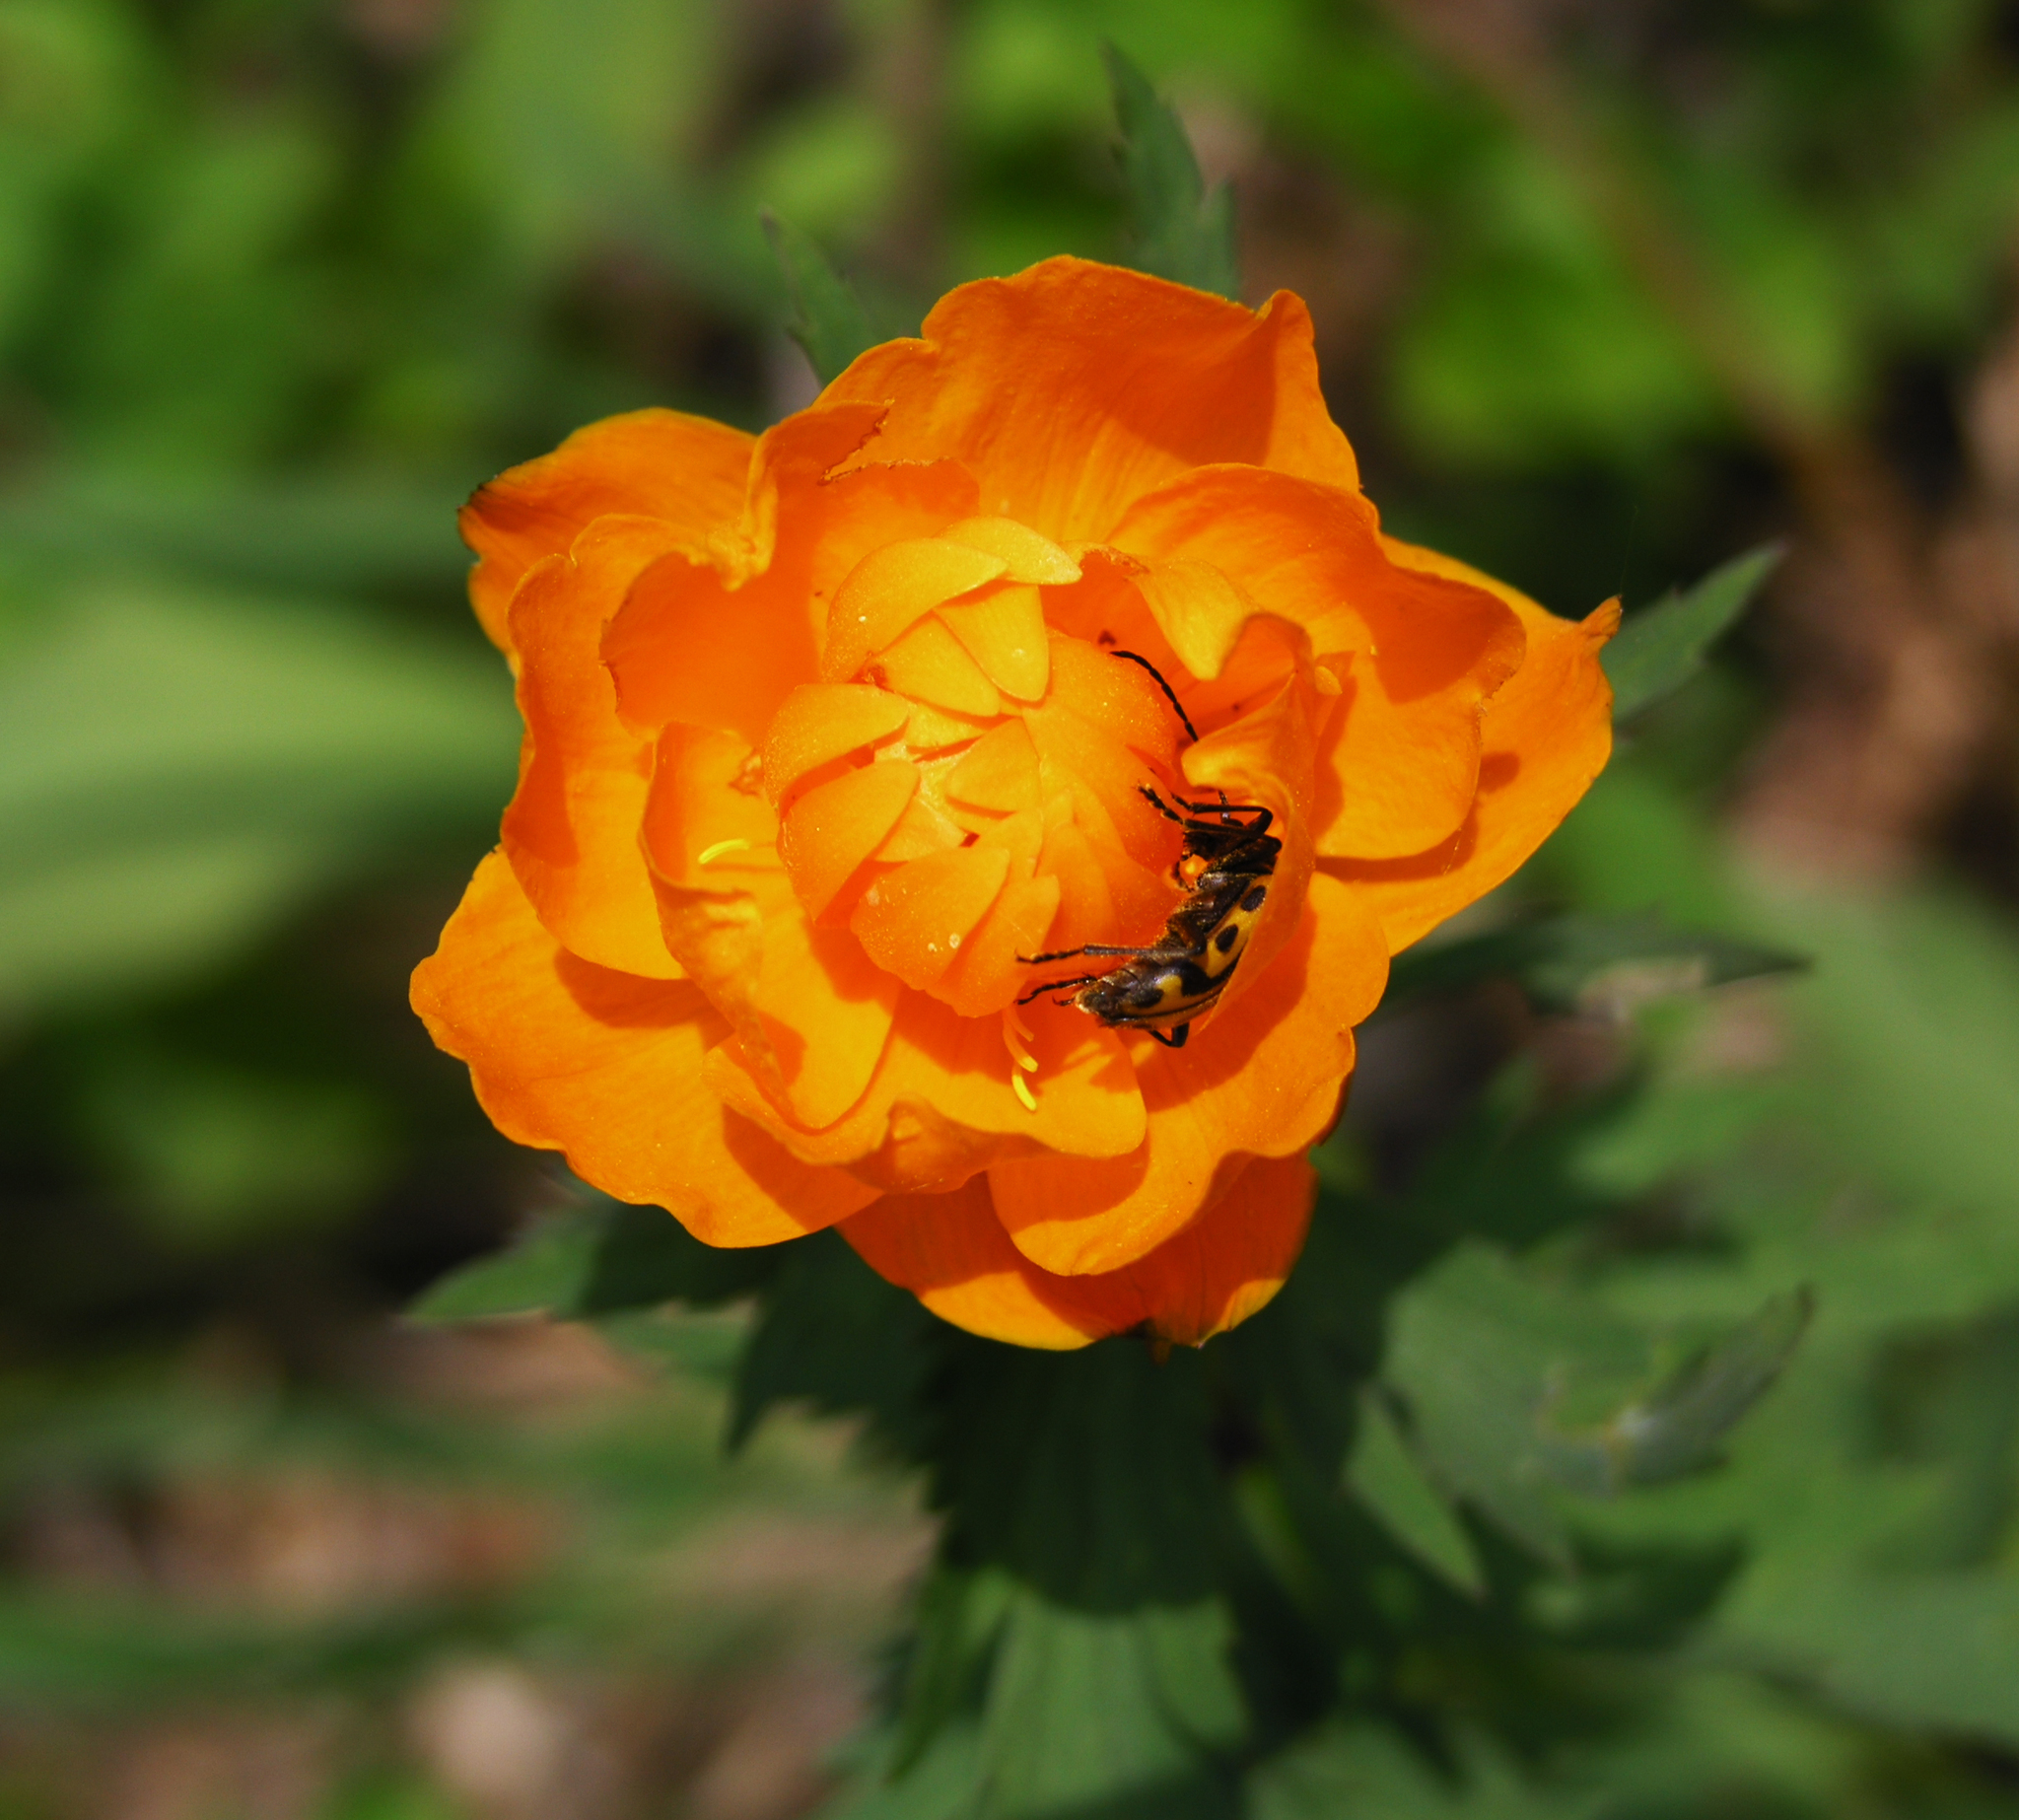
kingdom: Plantae
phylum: Tracheophyta
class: Magnoliopsida
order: Ranunculales
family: Ranunculaceae
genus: Trollius
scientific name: Trollius asiaticus
